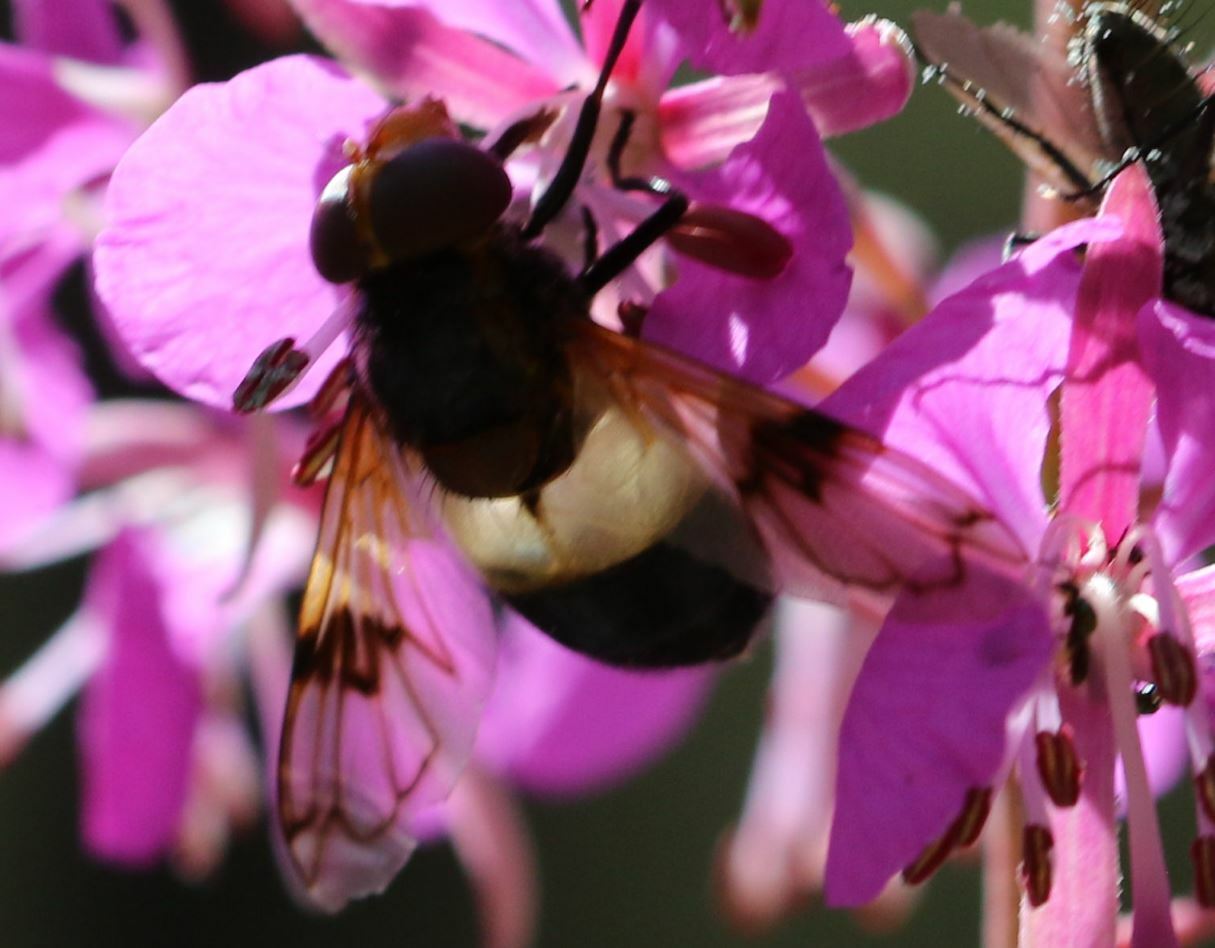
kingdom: Animalia
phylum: Arthropoda
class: Insecta
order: Diptera
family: Syrphidae
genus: Volucella
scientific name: Volucella pellucens
